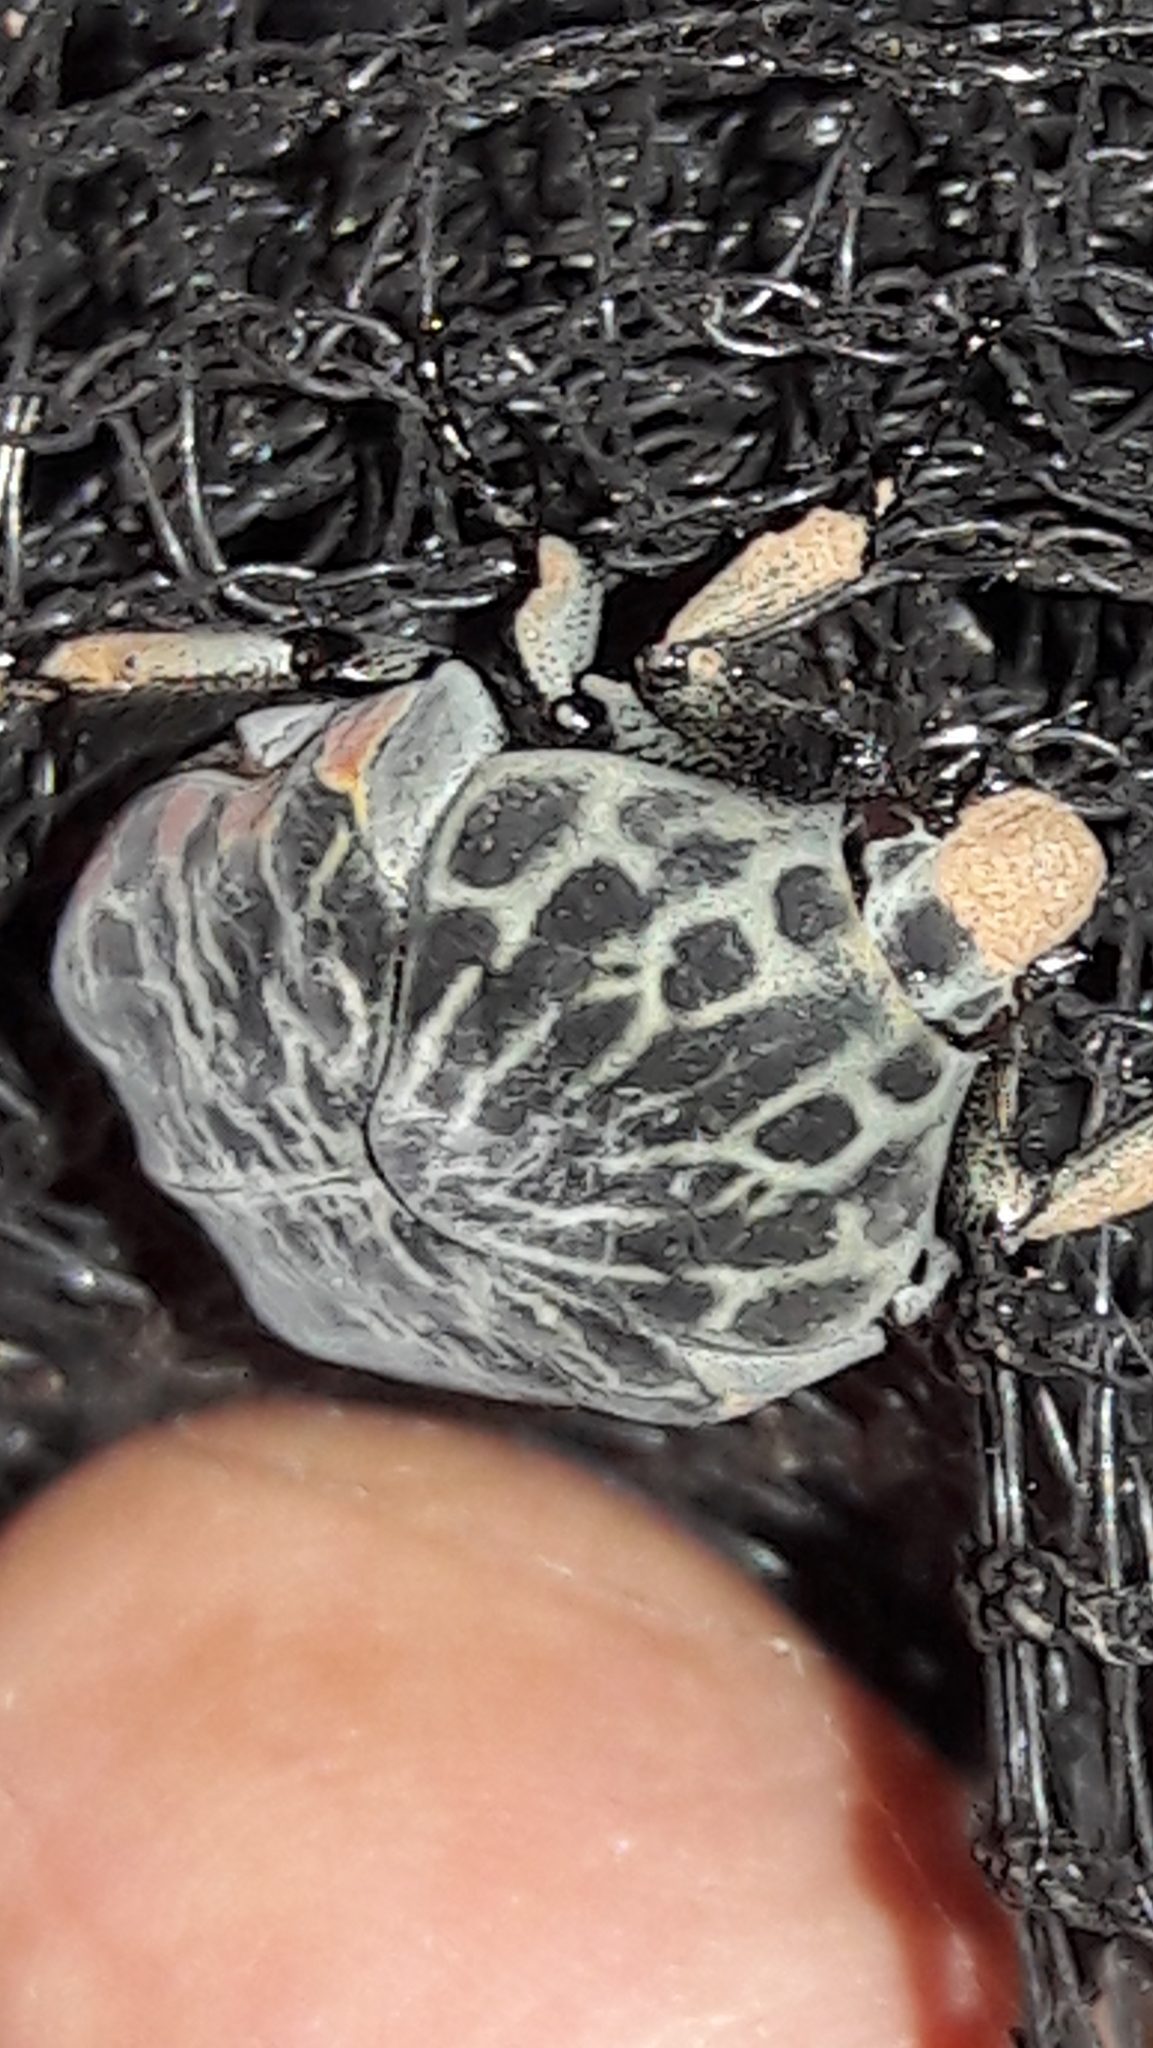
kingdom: Animalia
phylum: Arthropoda
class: Insecta
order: Coleoptera
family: Scarabaeidae
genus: Gymnetis
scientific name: Gymnetis rufilatris
